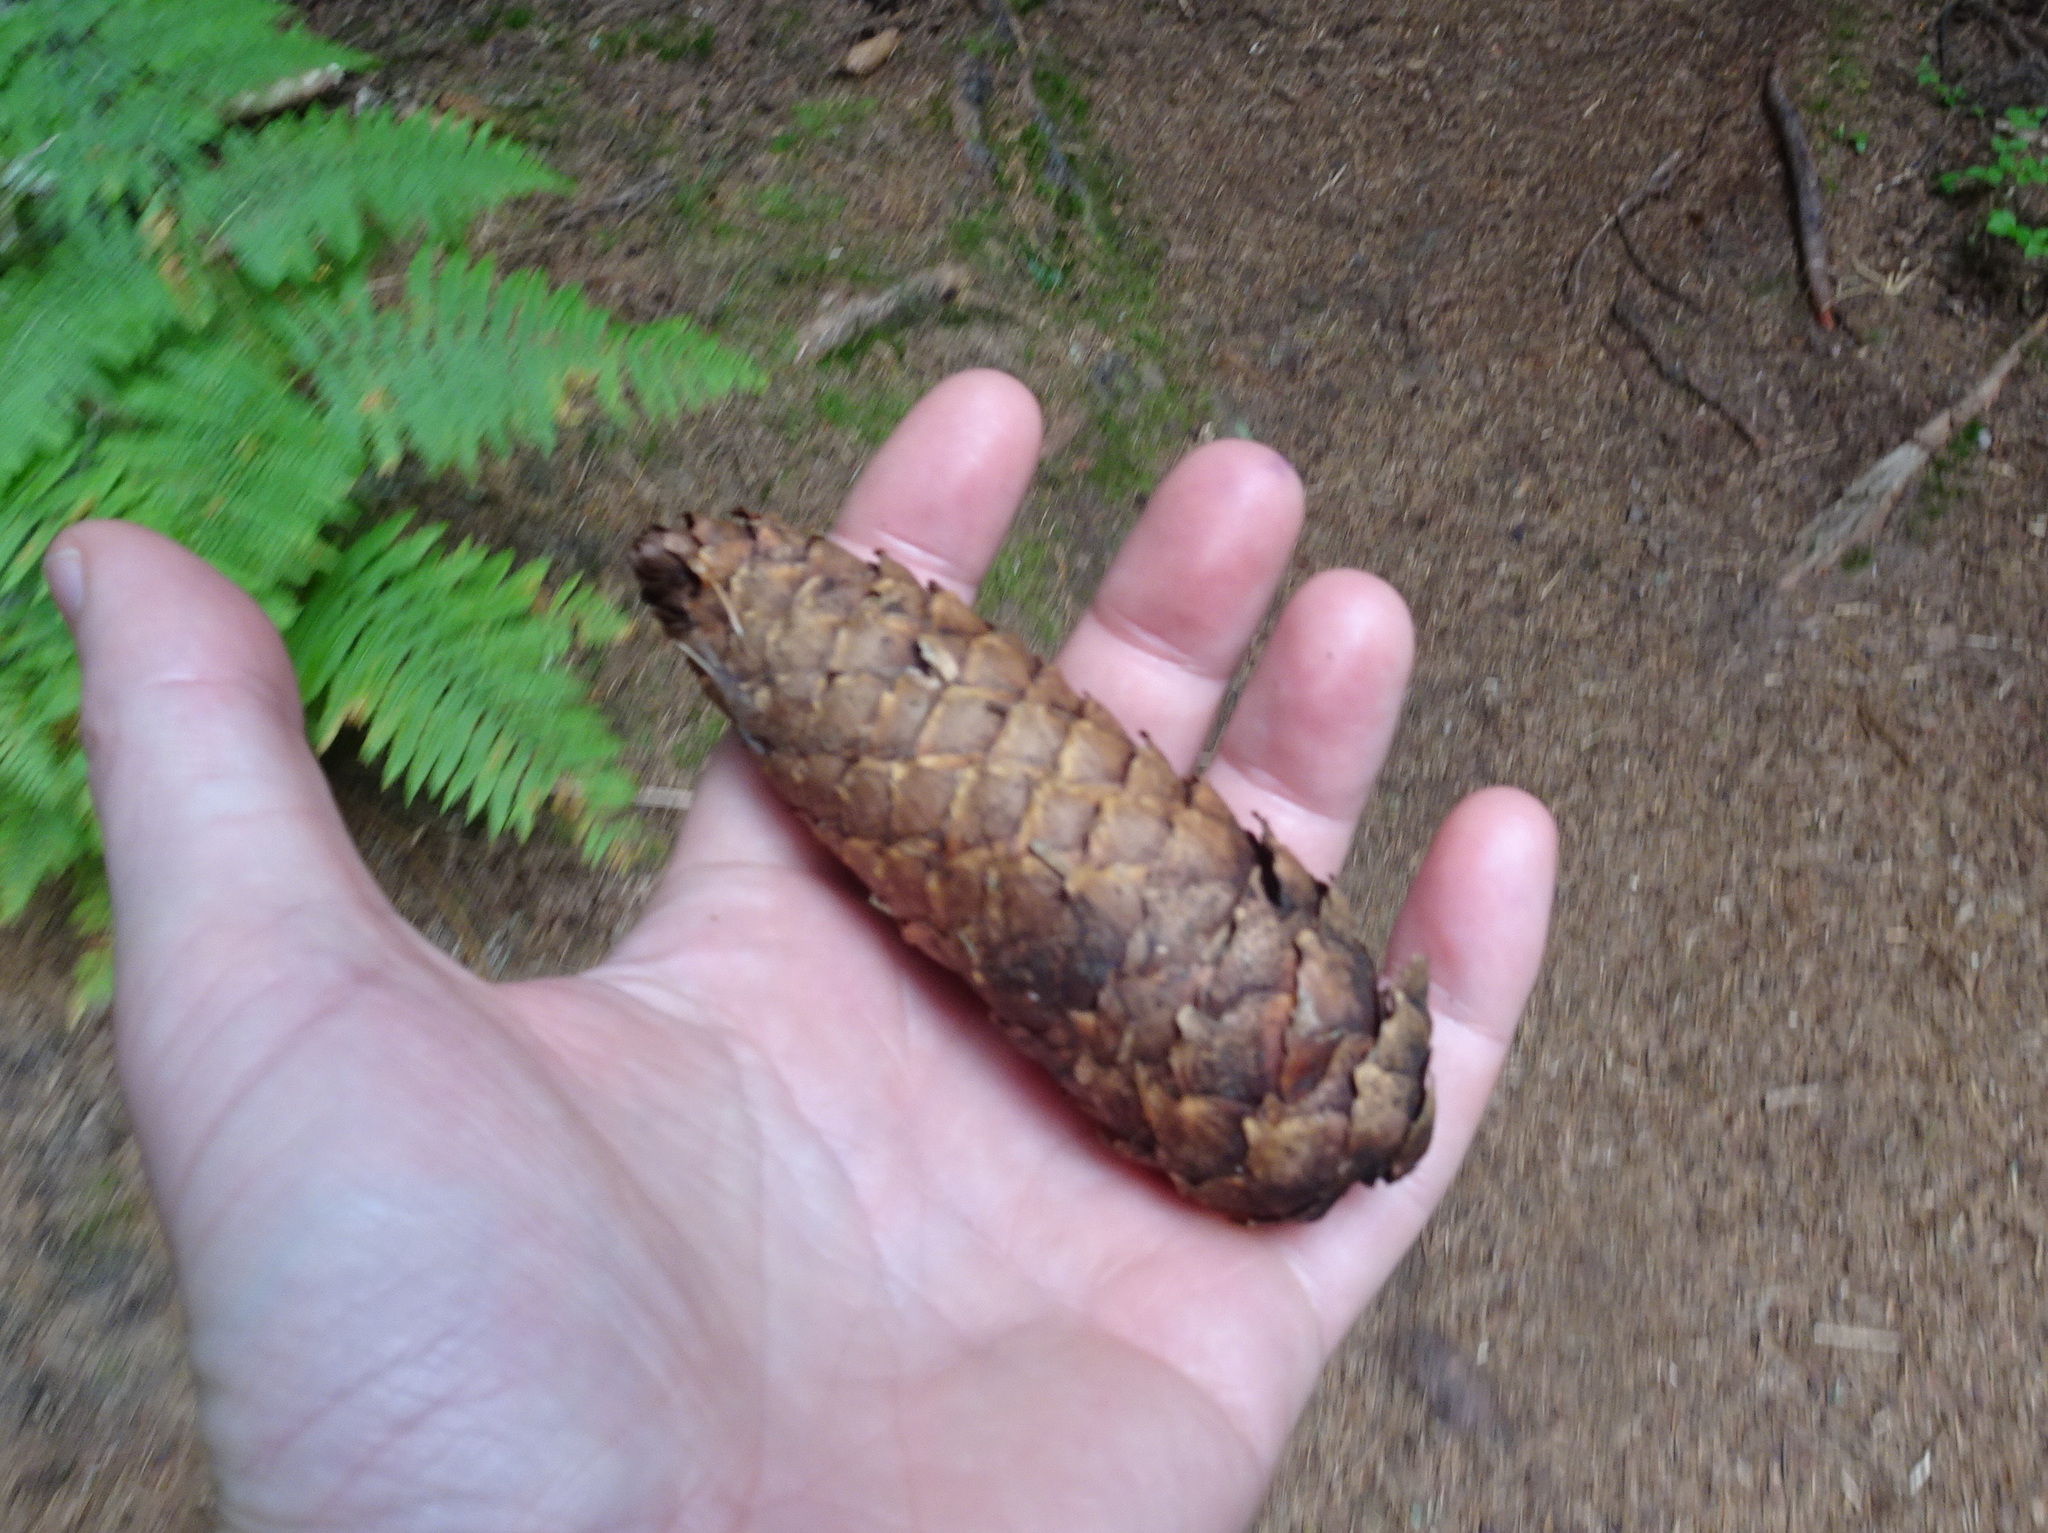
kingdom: Plantae
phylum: Tracheophyta
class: Pinopsida
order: Pinales
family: Pinaceae
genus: Picea
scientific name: Picea abies
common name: Norway spruce
